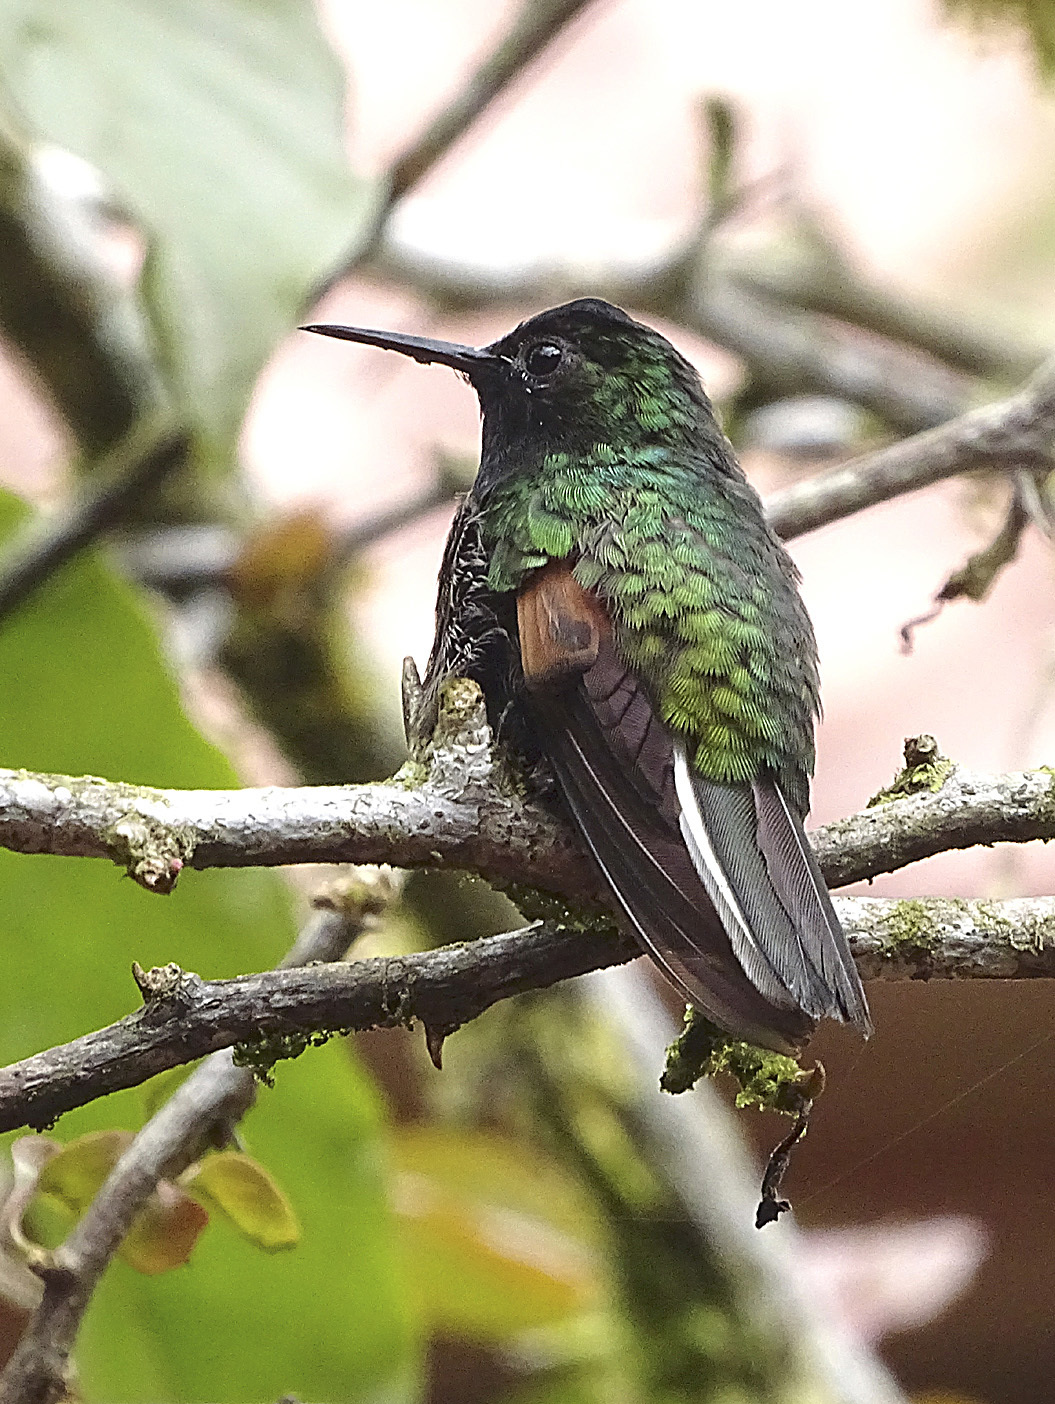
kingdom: Animalia
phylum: Chordata
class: Aves
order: Apodiformes
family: Trochilidae
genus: Eupherusa
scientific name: Eupherusa nigriventris
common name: Black-bellied hummingbird
